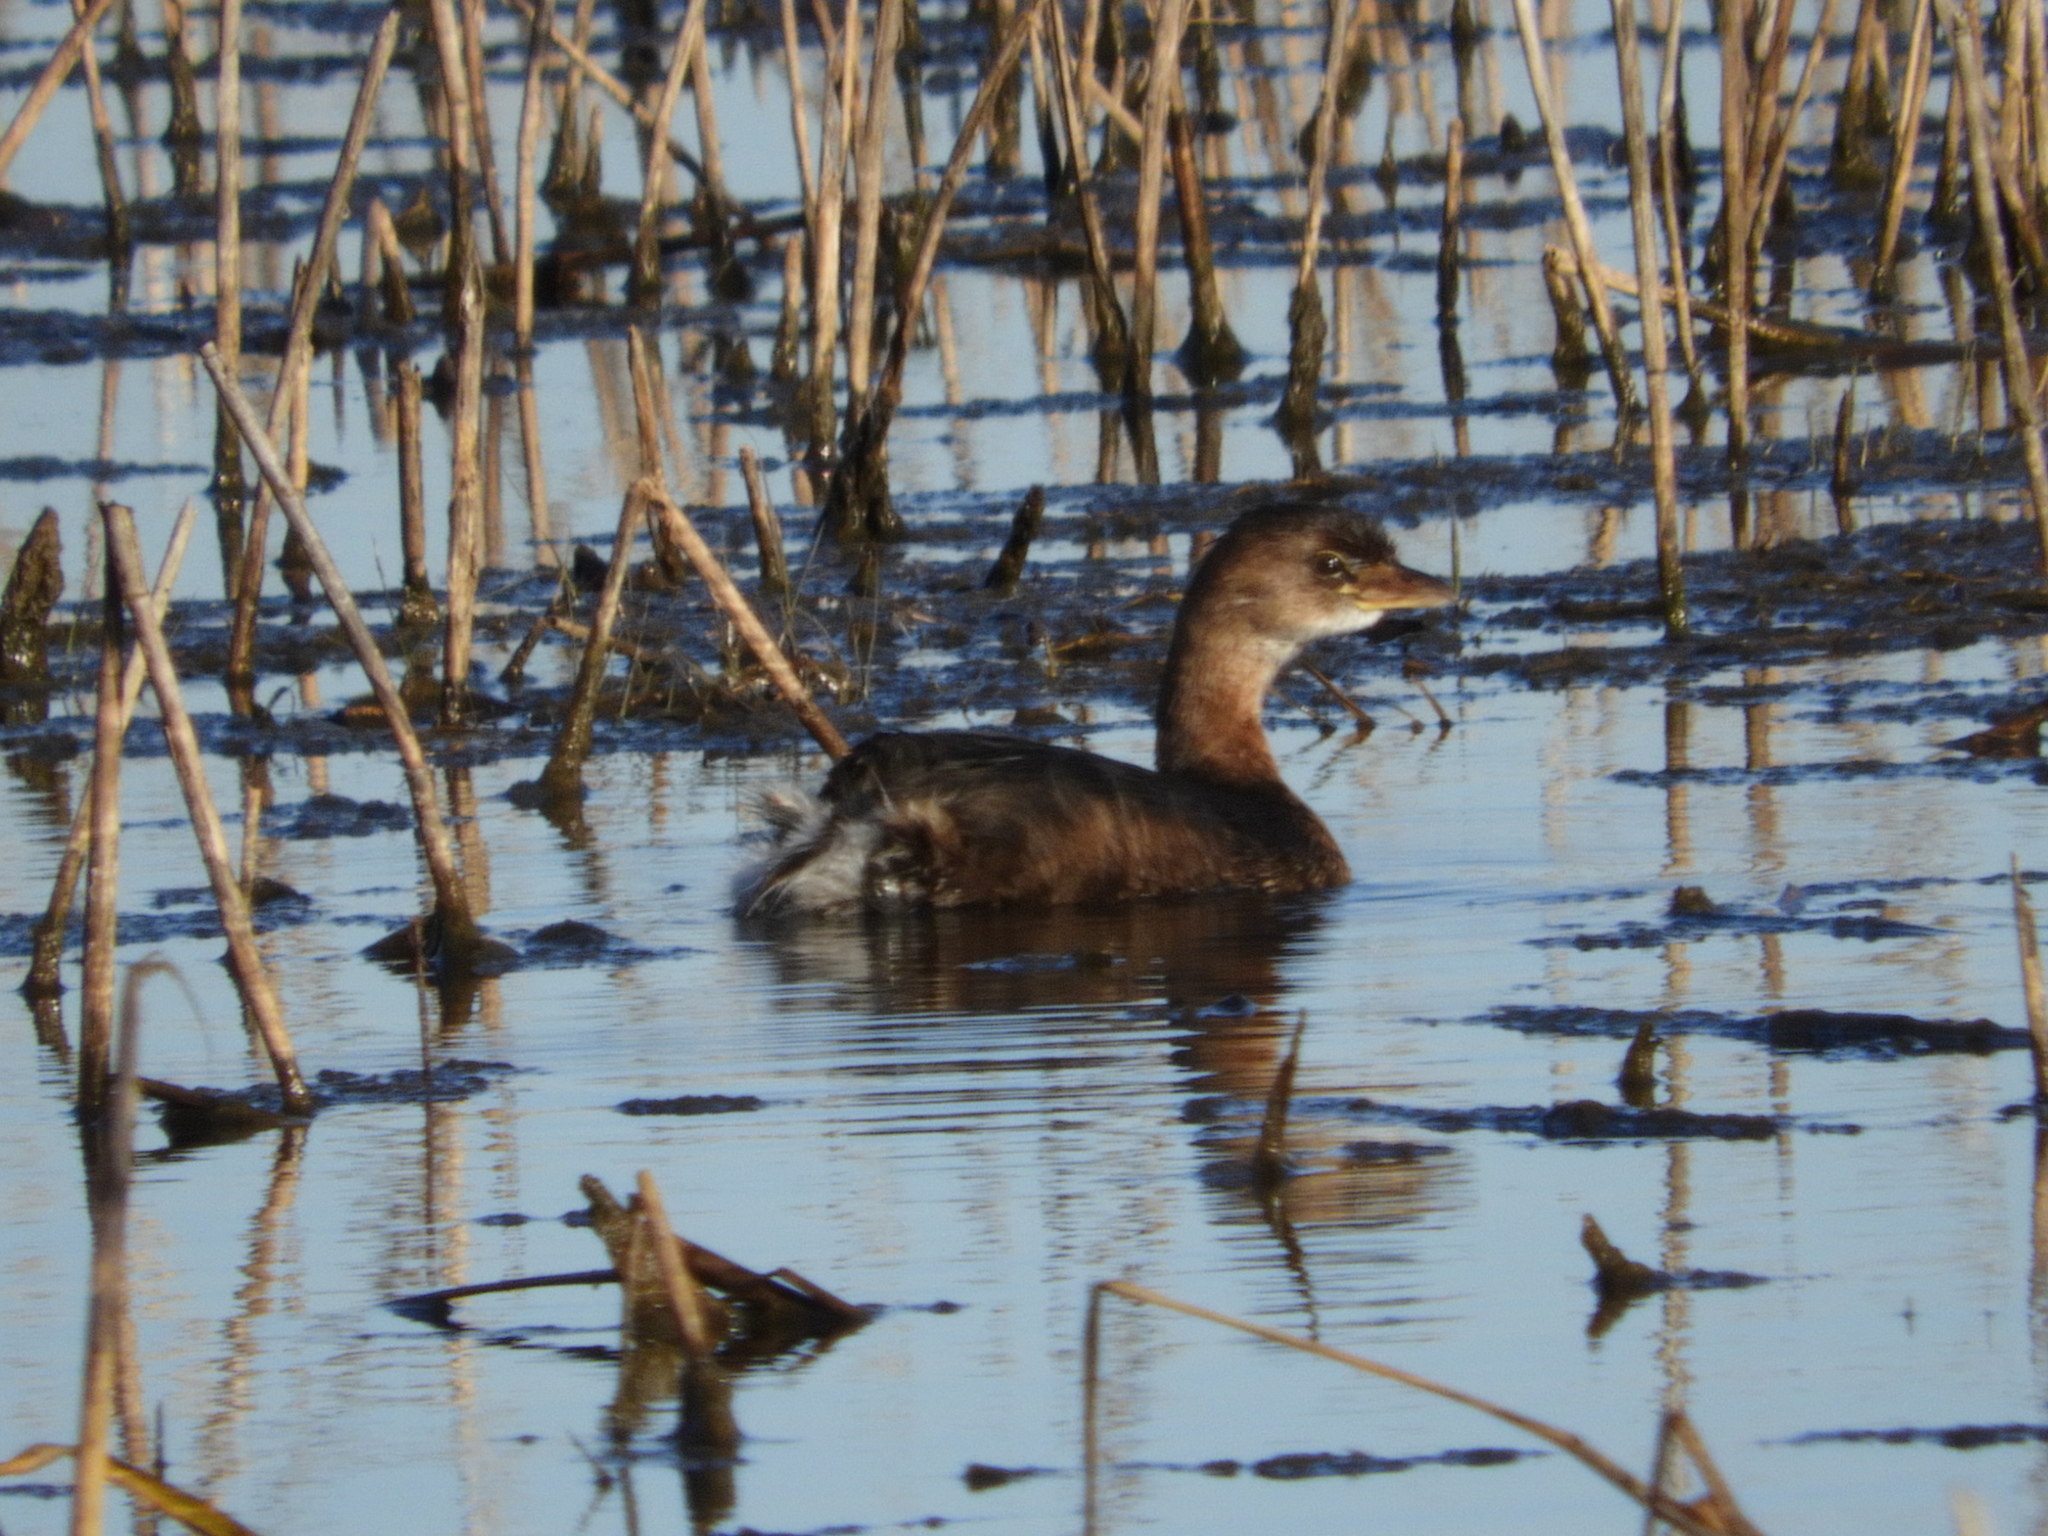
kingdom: Animalia
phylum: Chordata
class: Aves
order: Podicipediformes
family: Podicipedidae
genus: Podilymbus
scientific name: Podilymbus podiceps
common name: Pied-billed grebe
